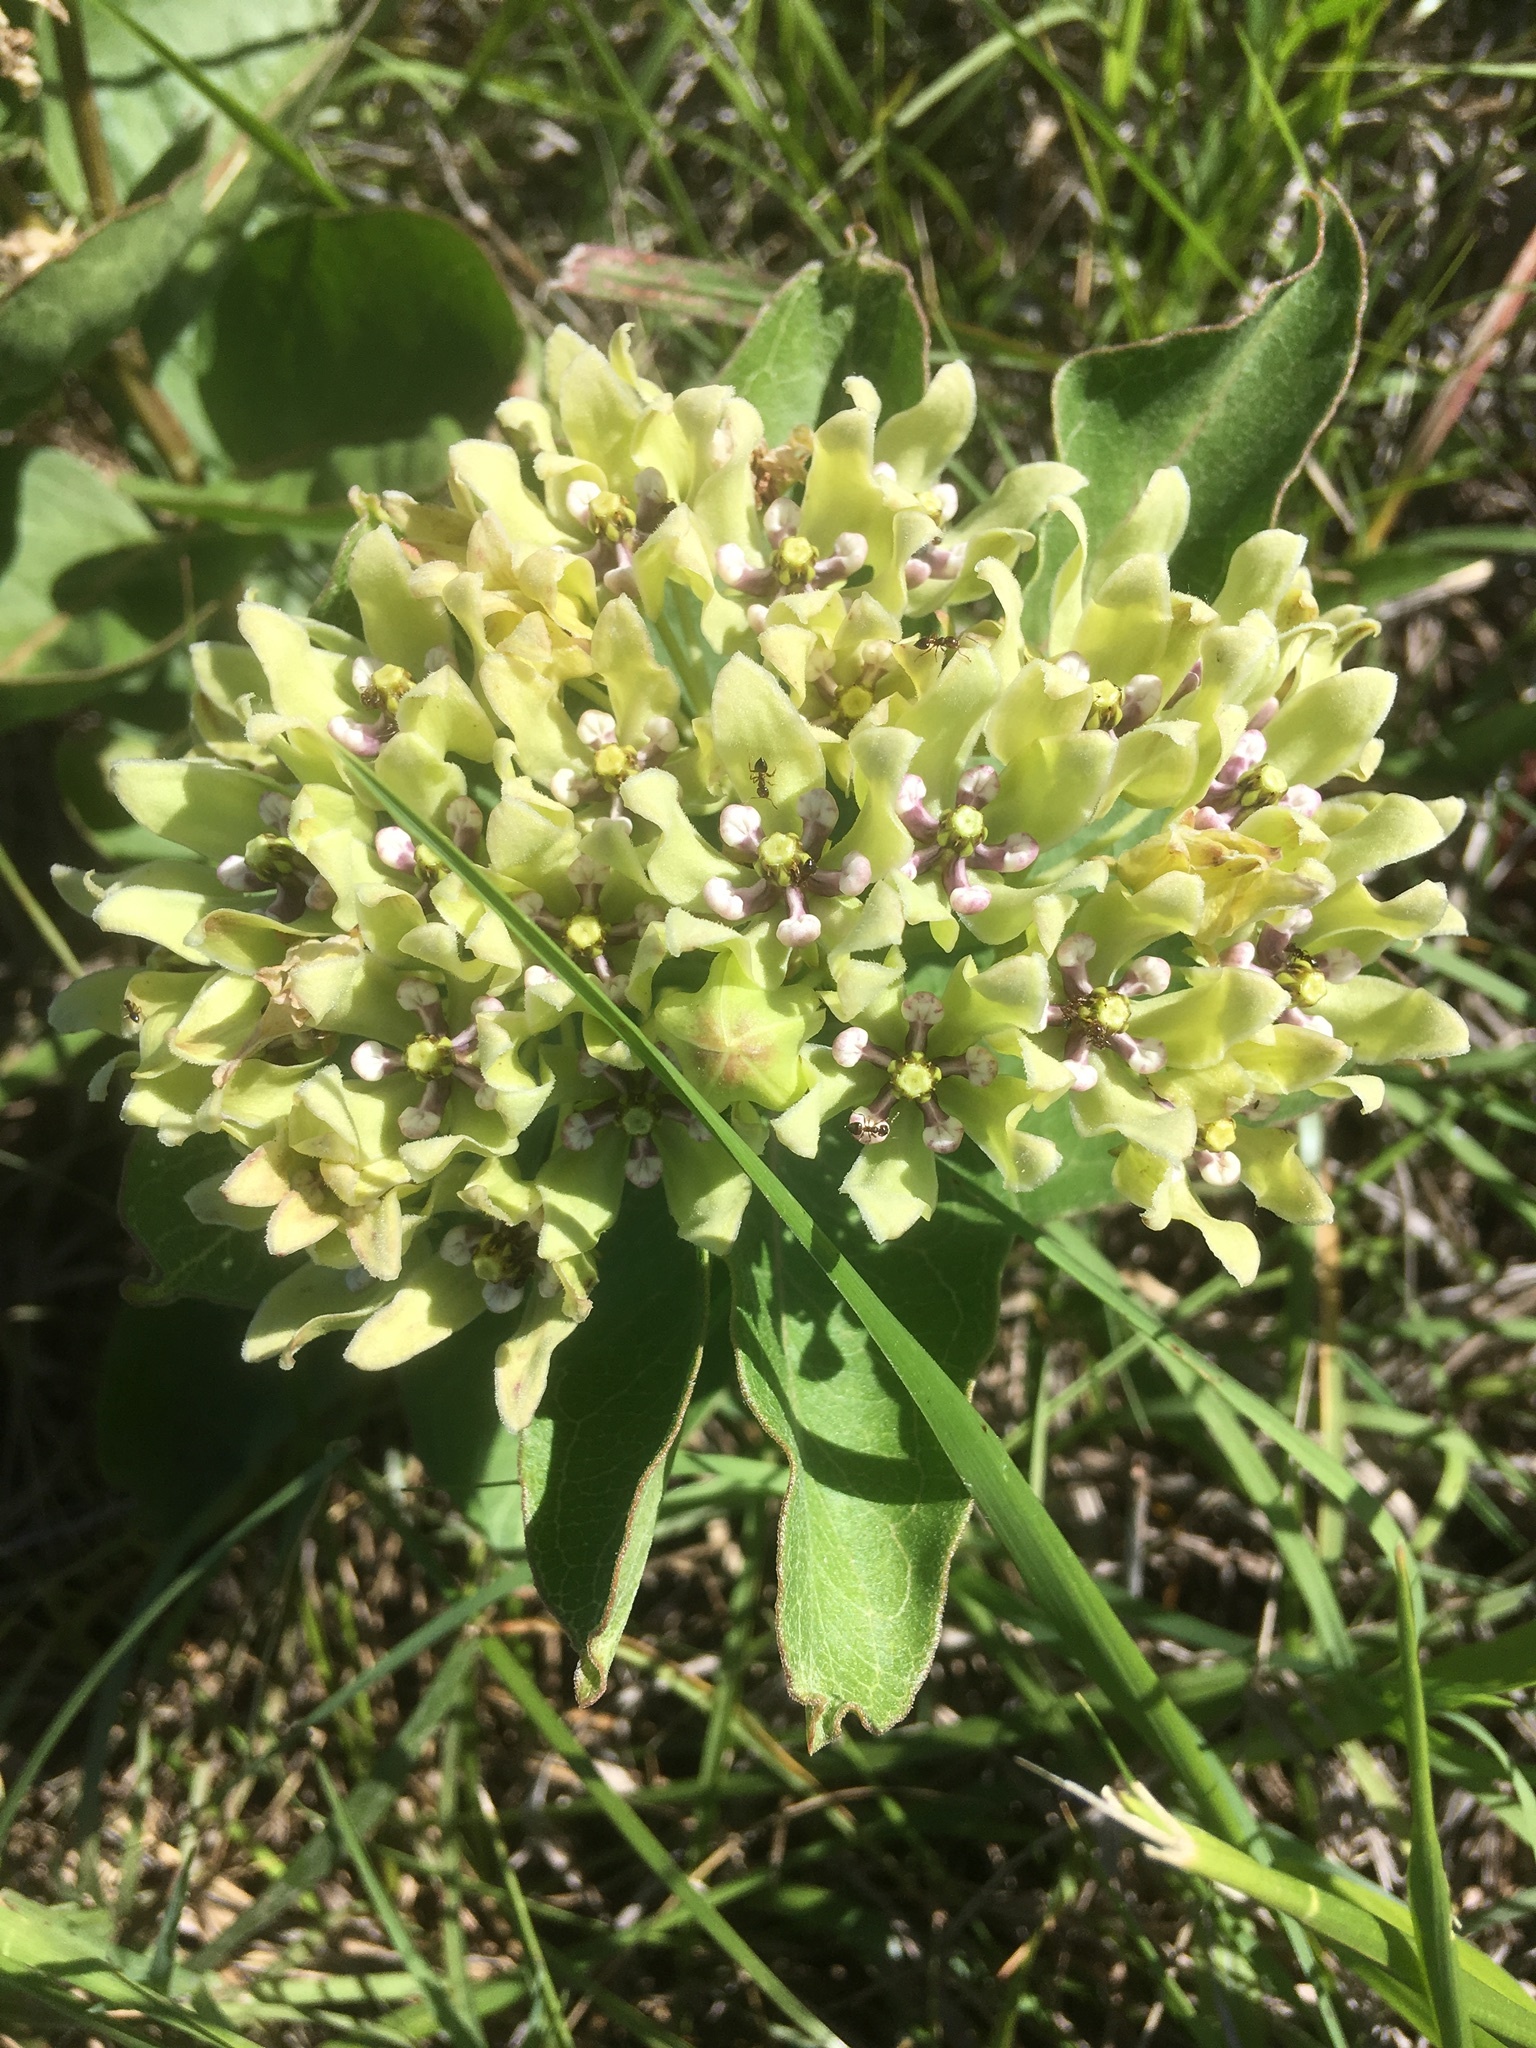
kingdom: Plantae
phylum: Tracheophyta
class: Magnoliopsida
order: Gentianales
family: Apocynaceae
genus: Asclepias
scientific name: Asclepias viridis
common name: Antelope-horns
